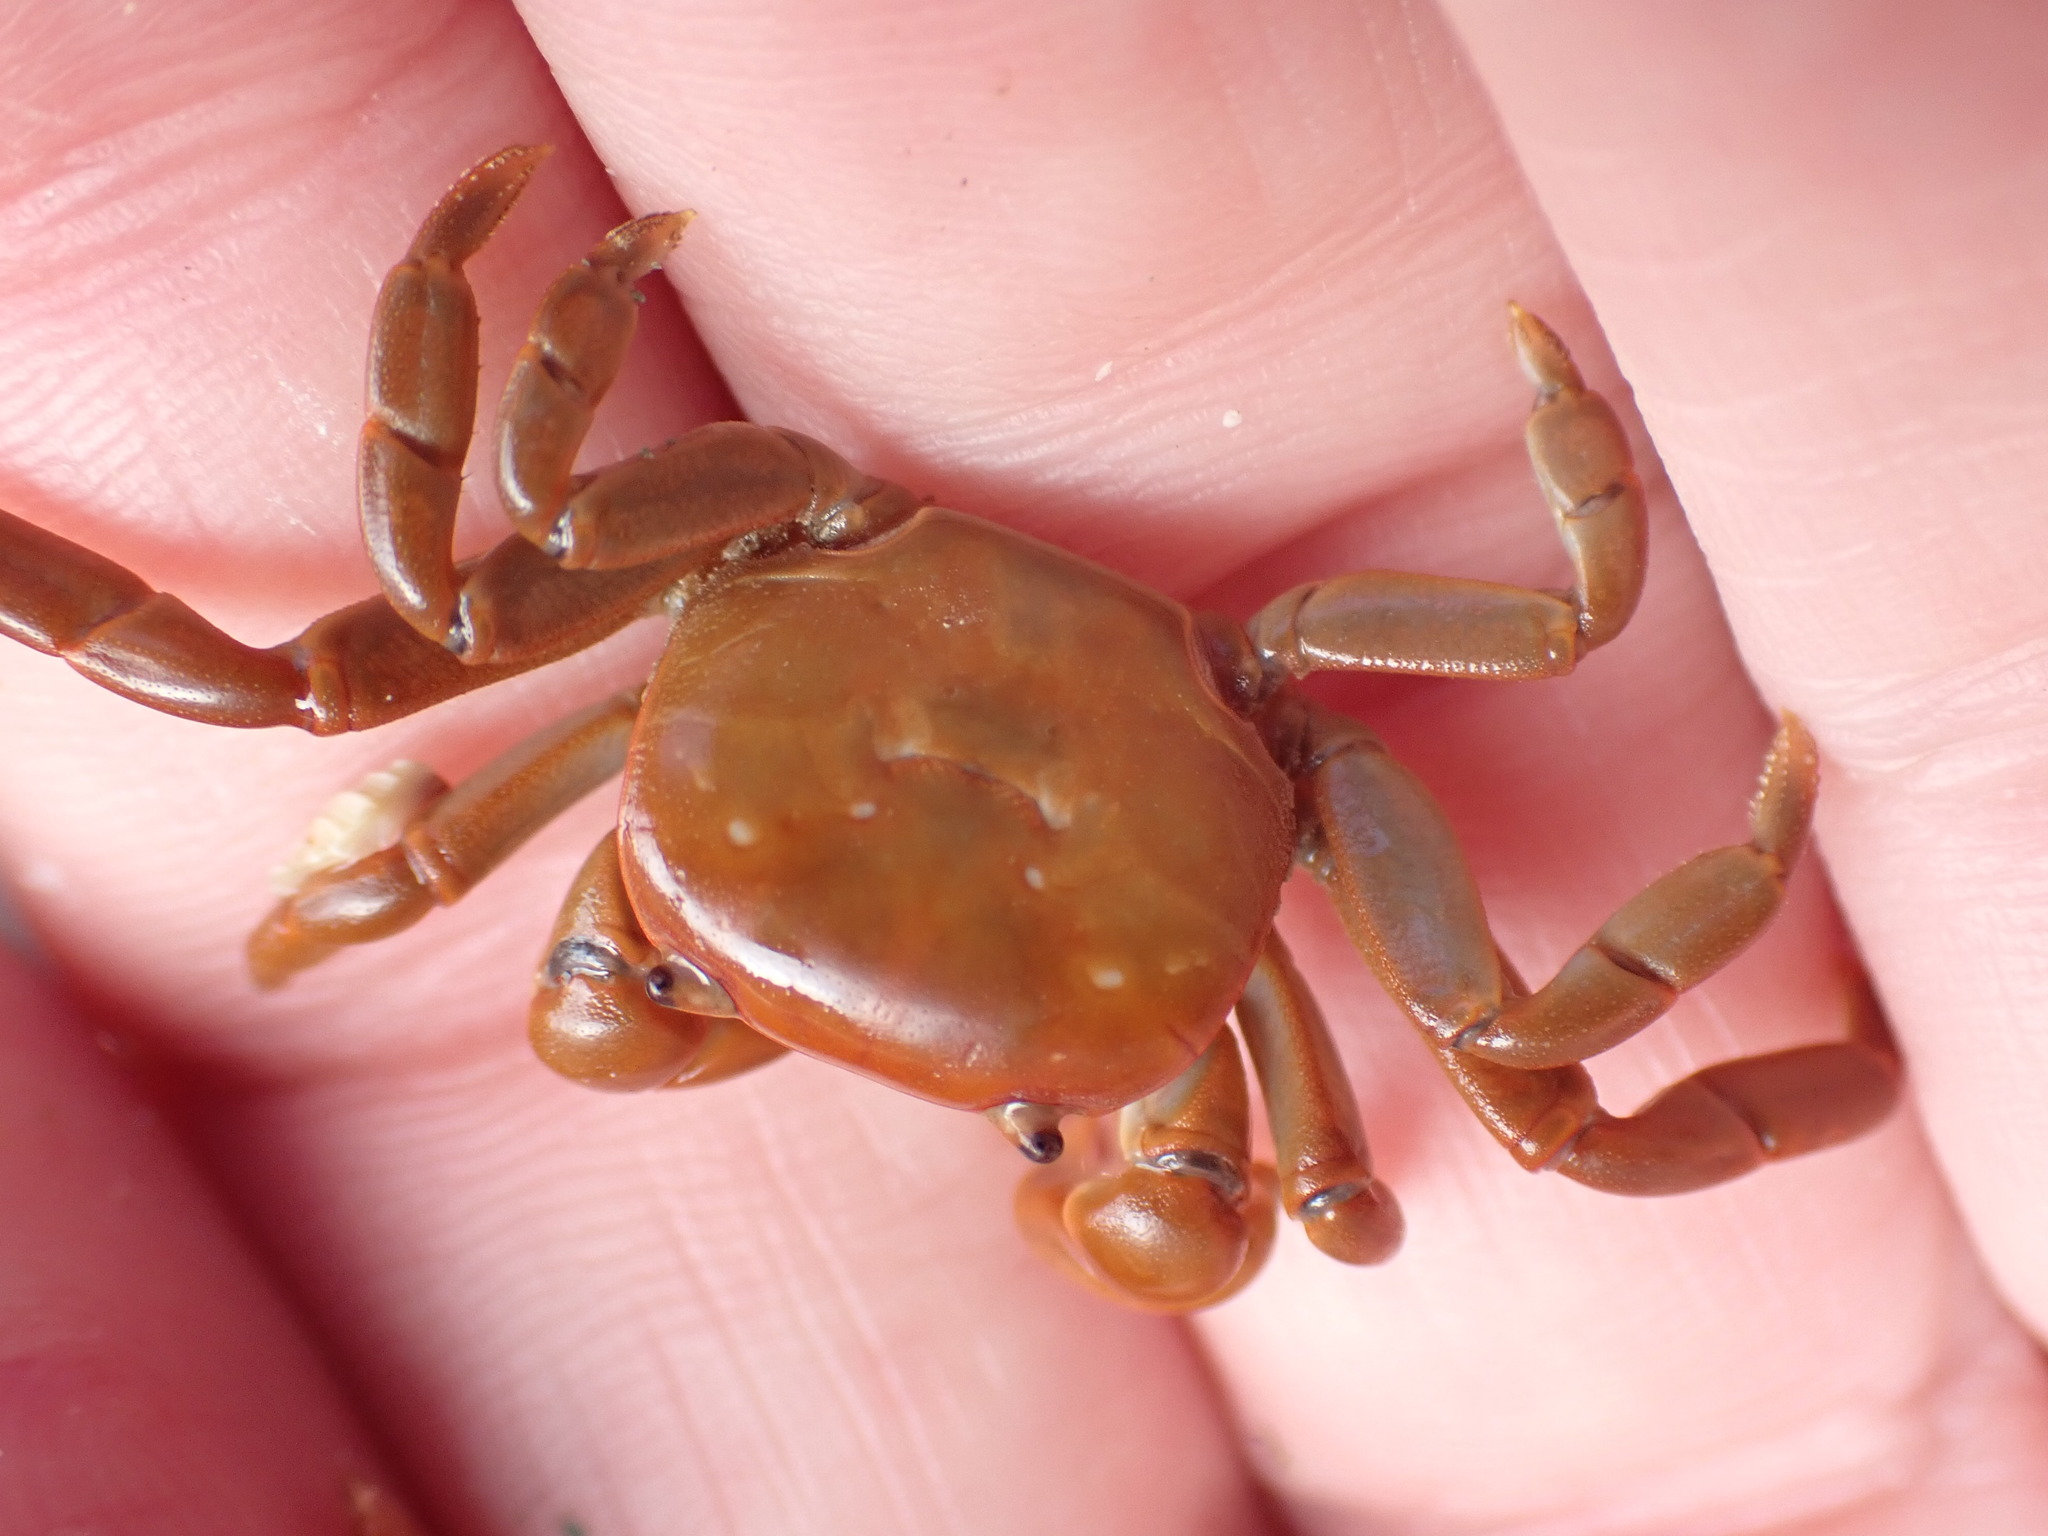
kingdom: Animalia
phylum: Arthropoda
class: Malacostraca
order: Decapoda
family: Varunidae
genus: Cyclograpsus
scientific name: Cyclograpsus insularum
